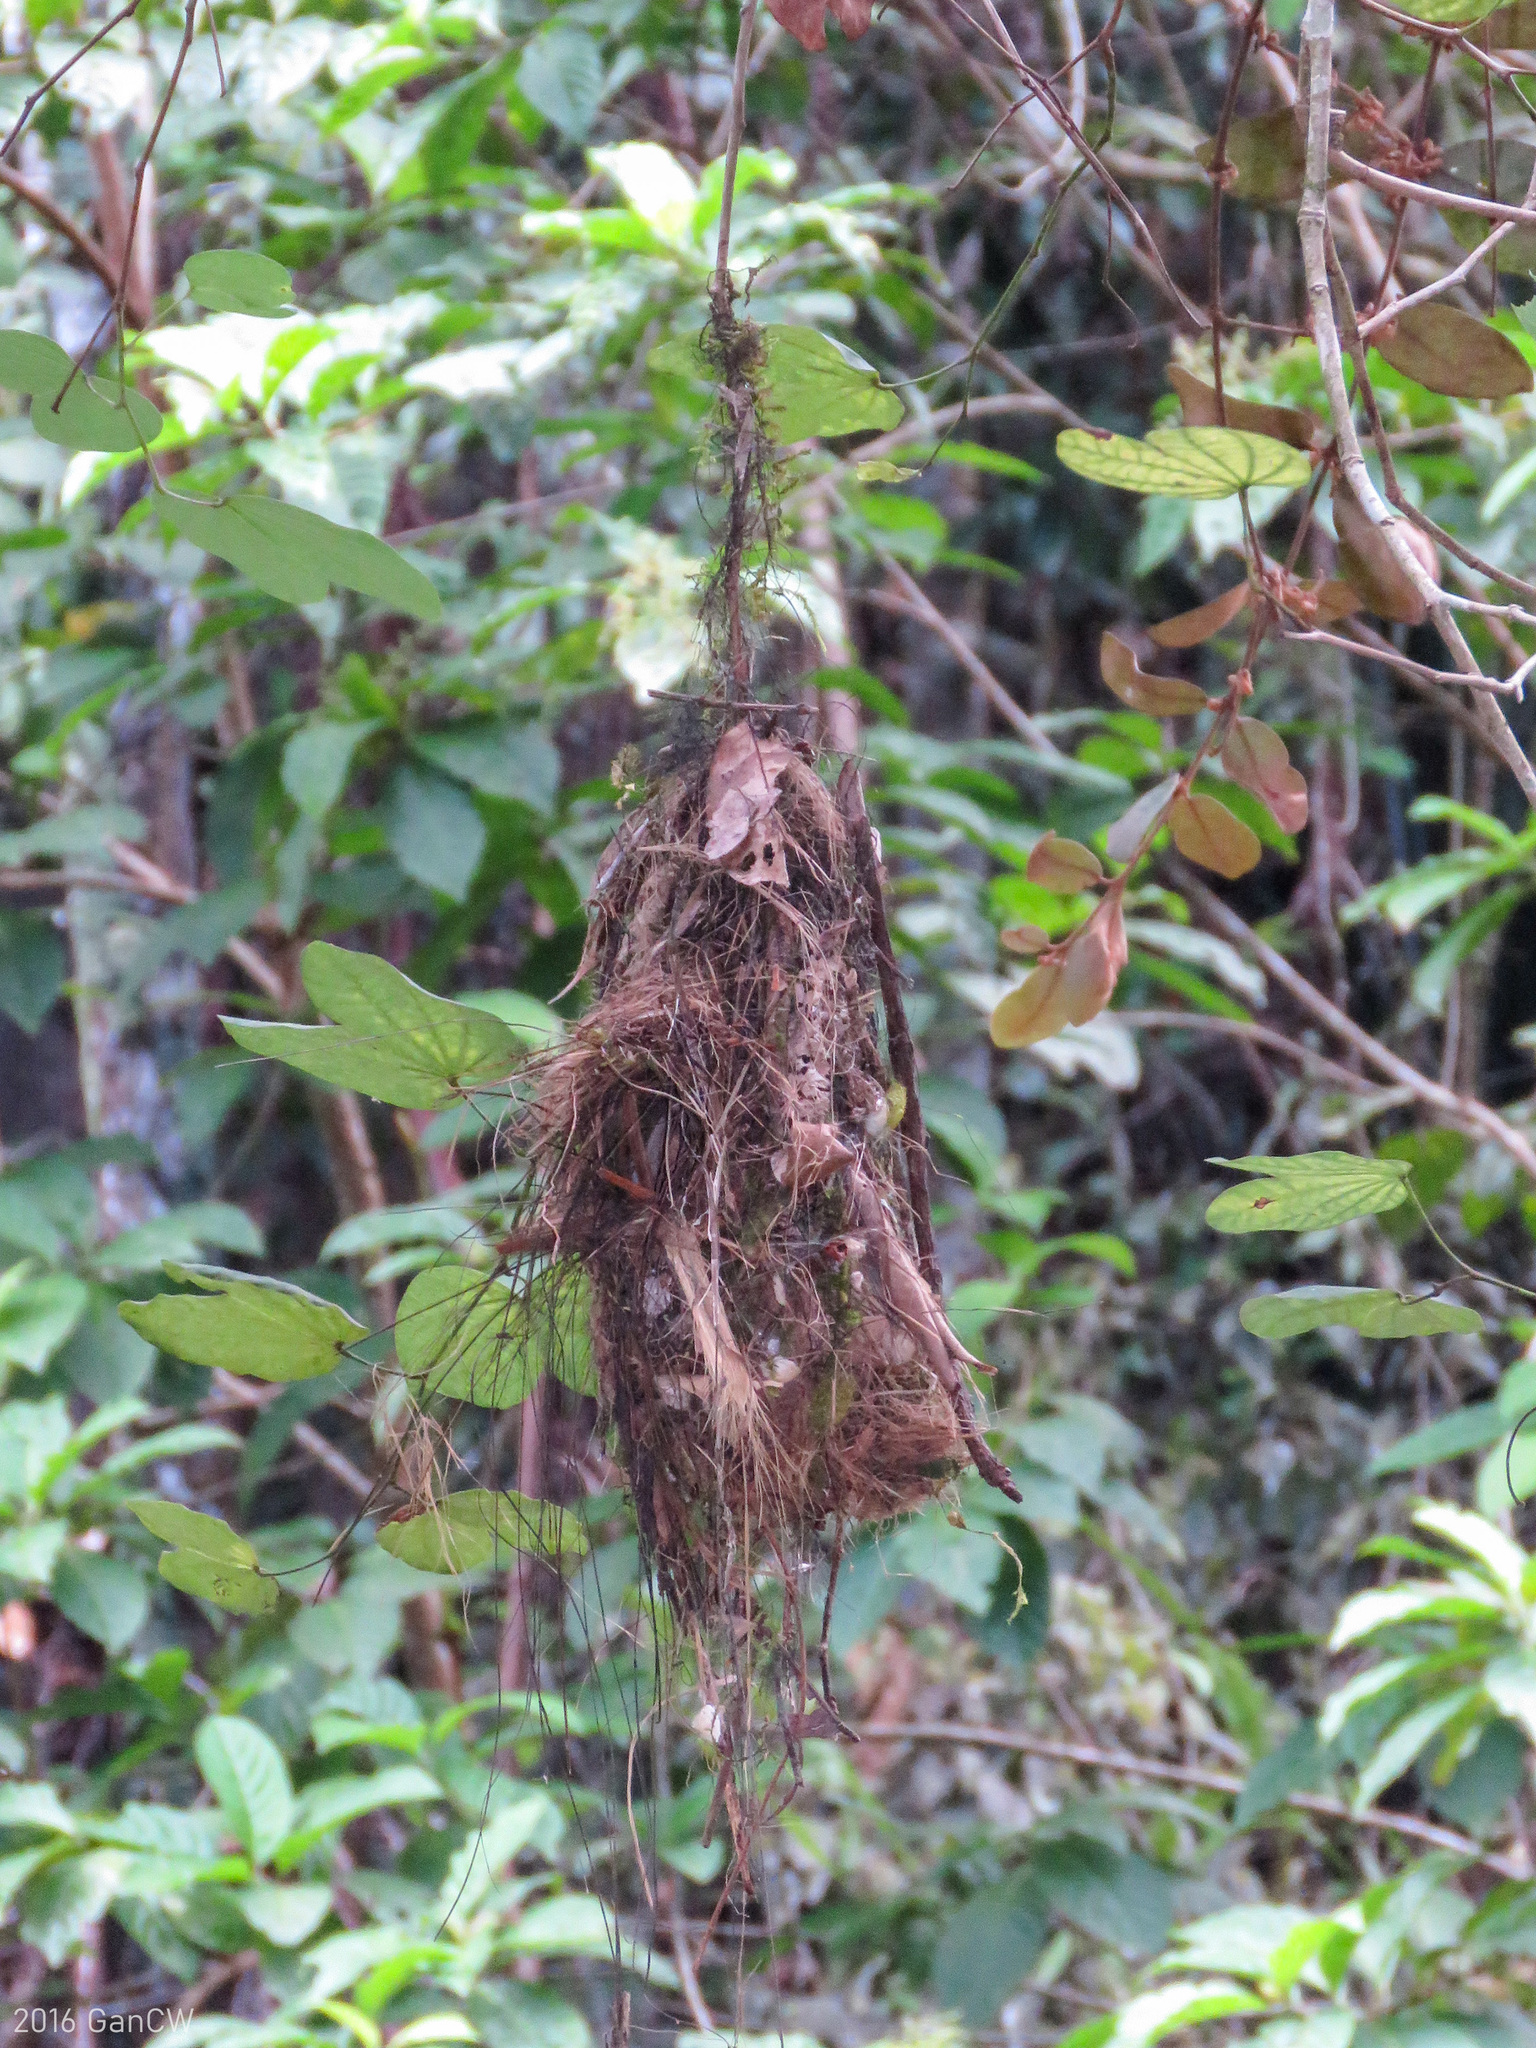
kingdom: Animalia
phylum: Chordata
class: Aves
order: Passeriformes
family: Eurylaimidae
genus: Serilophus
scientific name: Serilophus lunatus
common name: Silver-breasted broadbill
